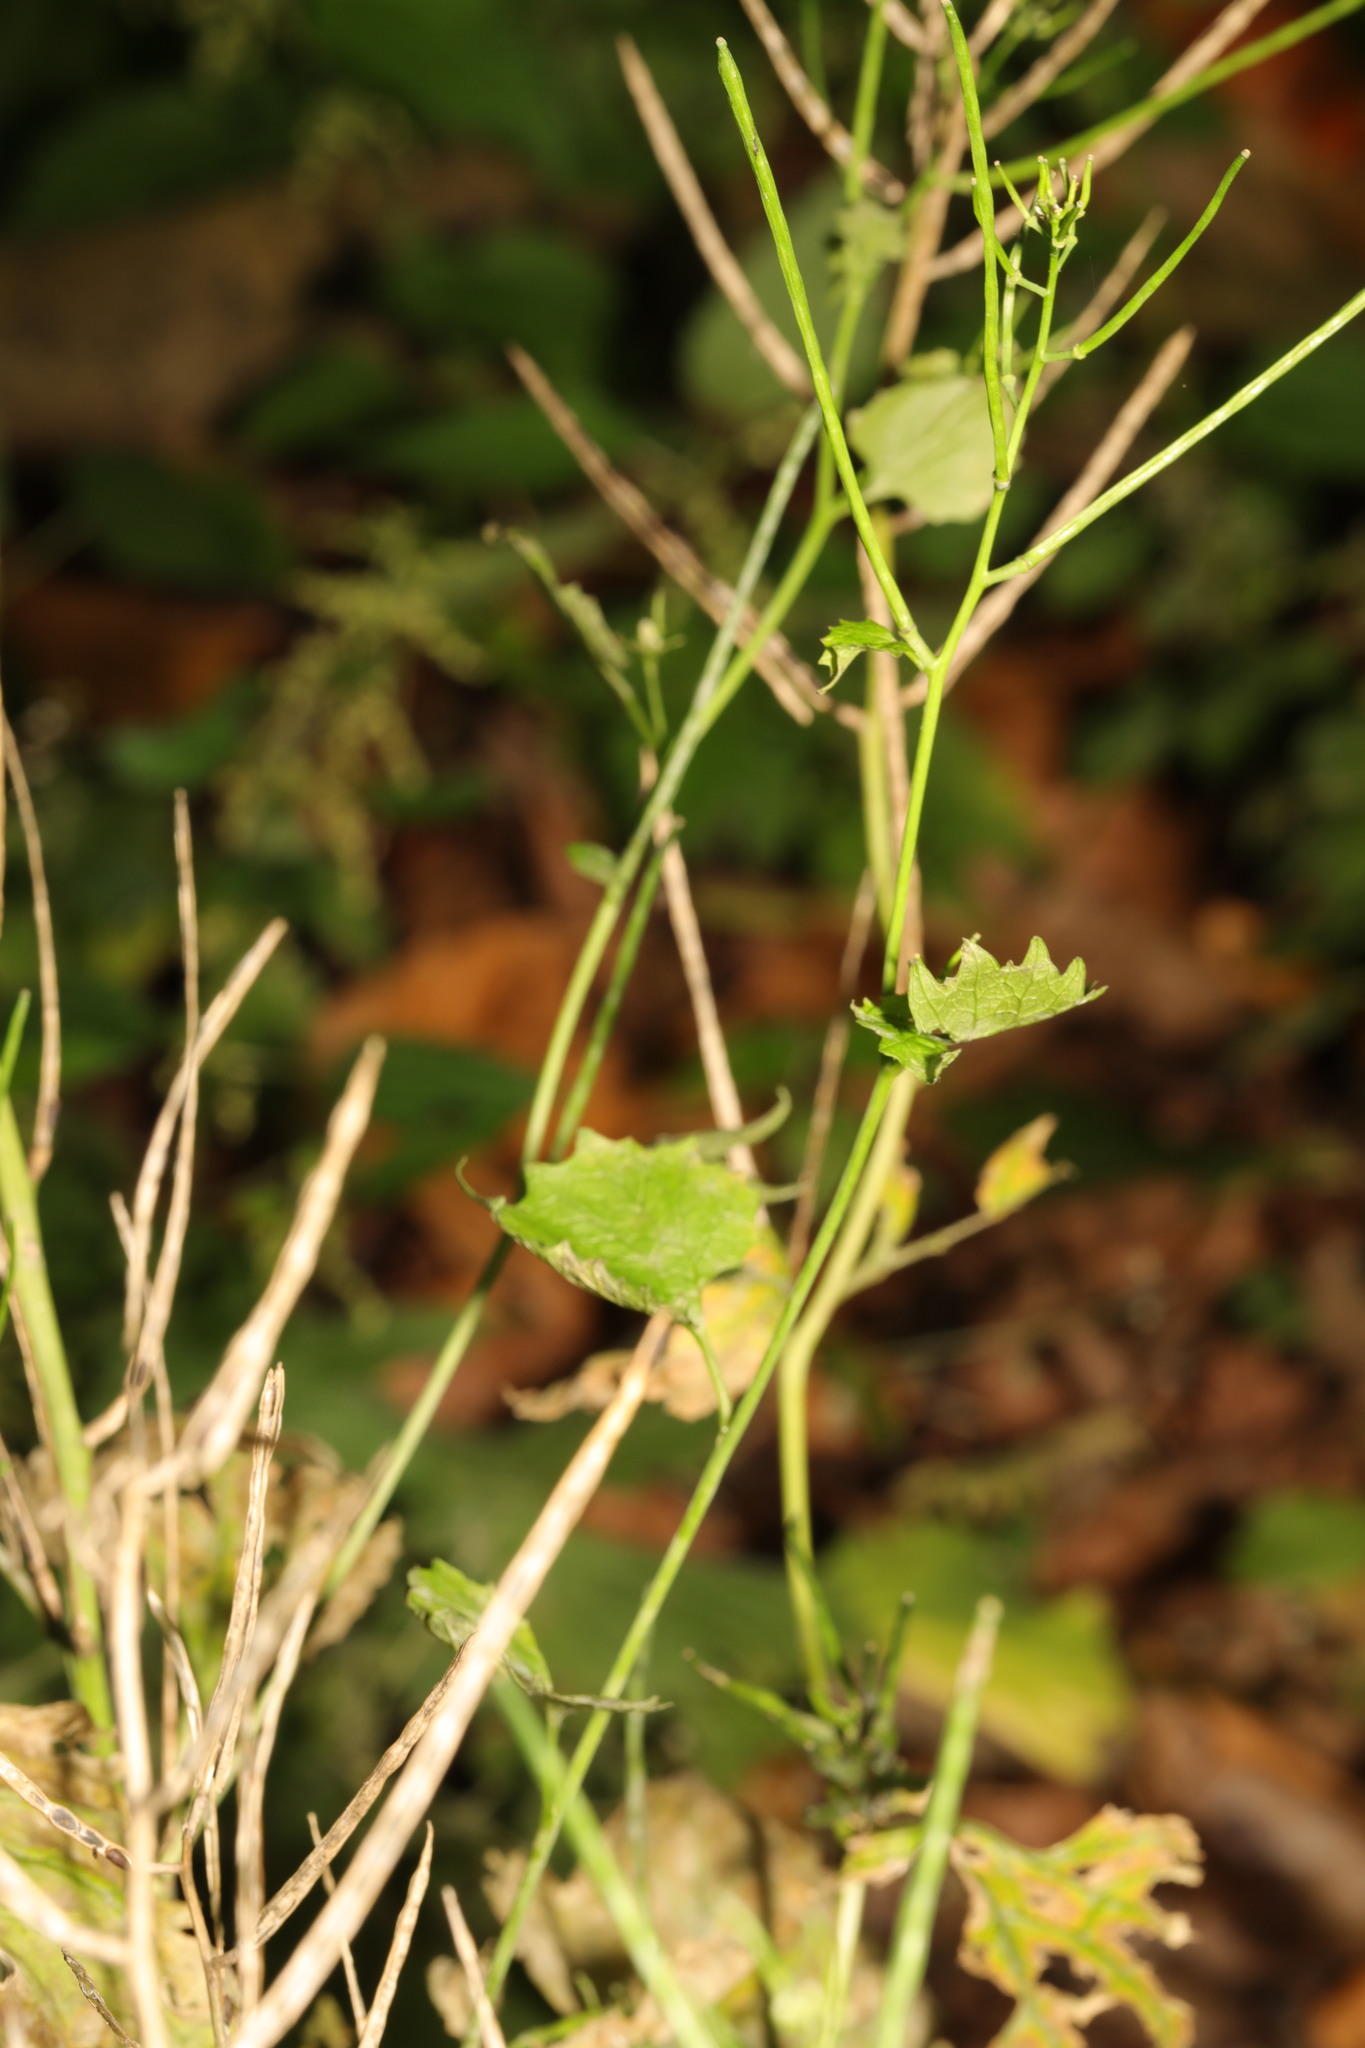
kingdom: Plantae
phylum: Tracheophyta
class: Magnoliopsida
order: Brassicales
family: Brassicaceae
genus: Alliaria
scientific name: Alliaria petiolata
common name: Garlic mustard
